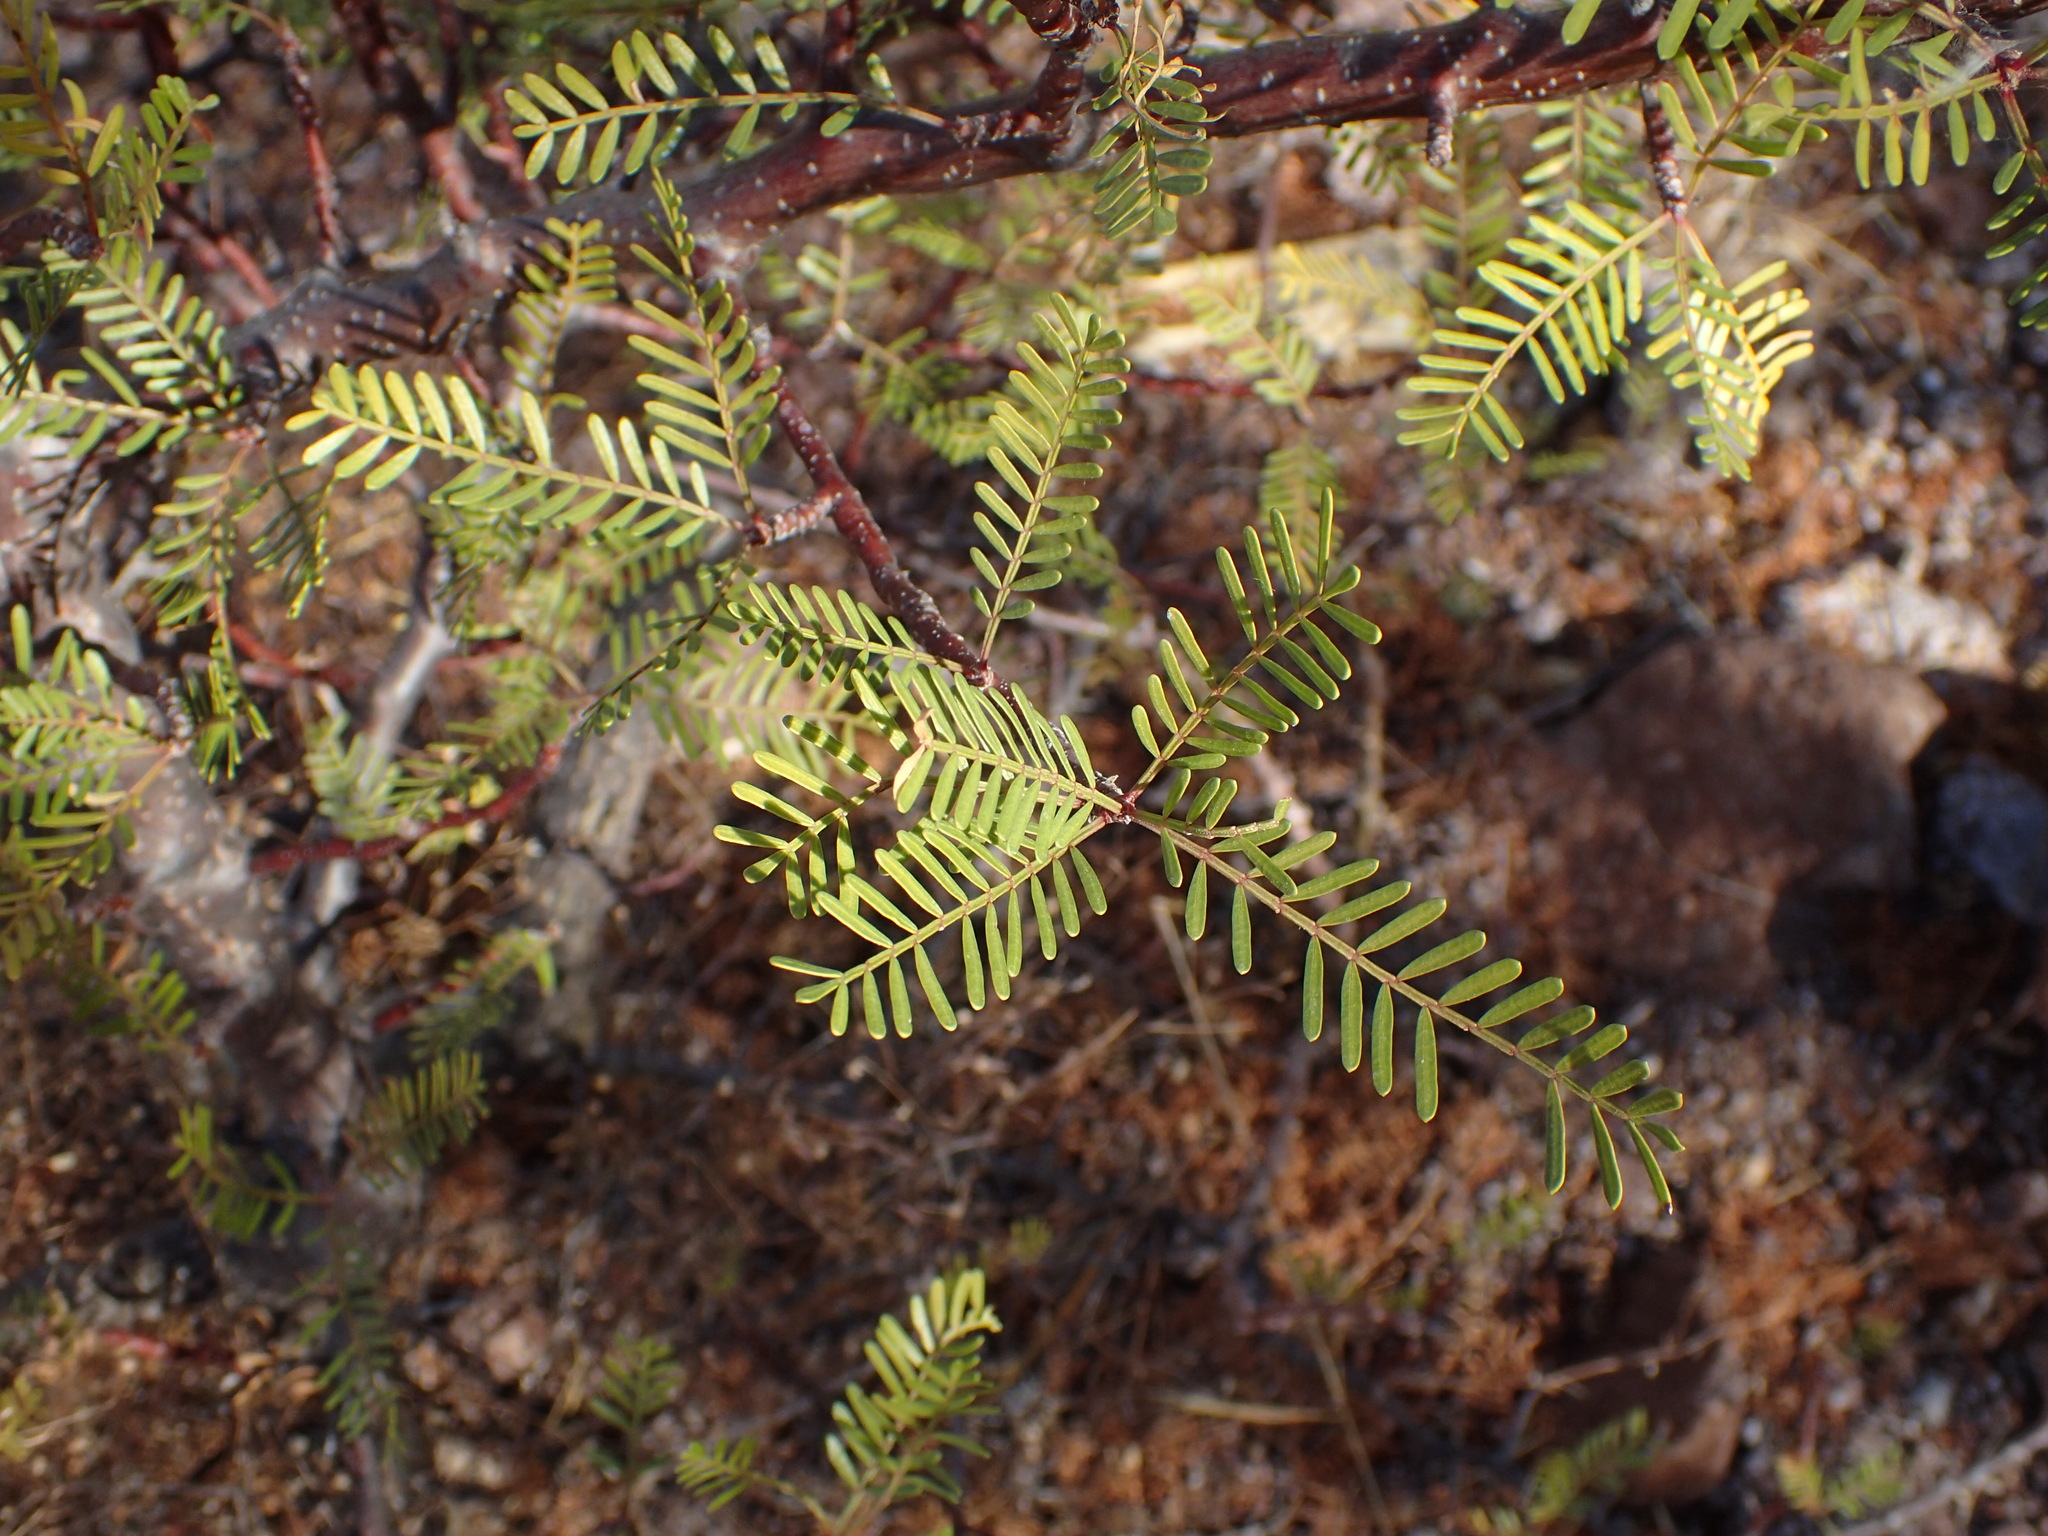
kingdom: Plantae
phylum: Tracheophyta
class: Magnoliopsida
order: Sapindales
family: Burseraceae
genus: Bursera
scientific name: Bursera microphylla
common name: Elephant tree
